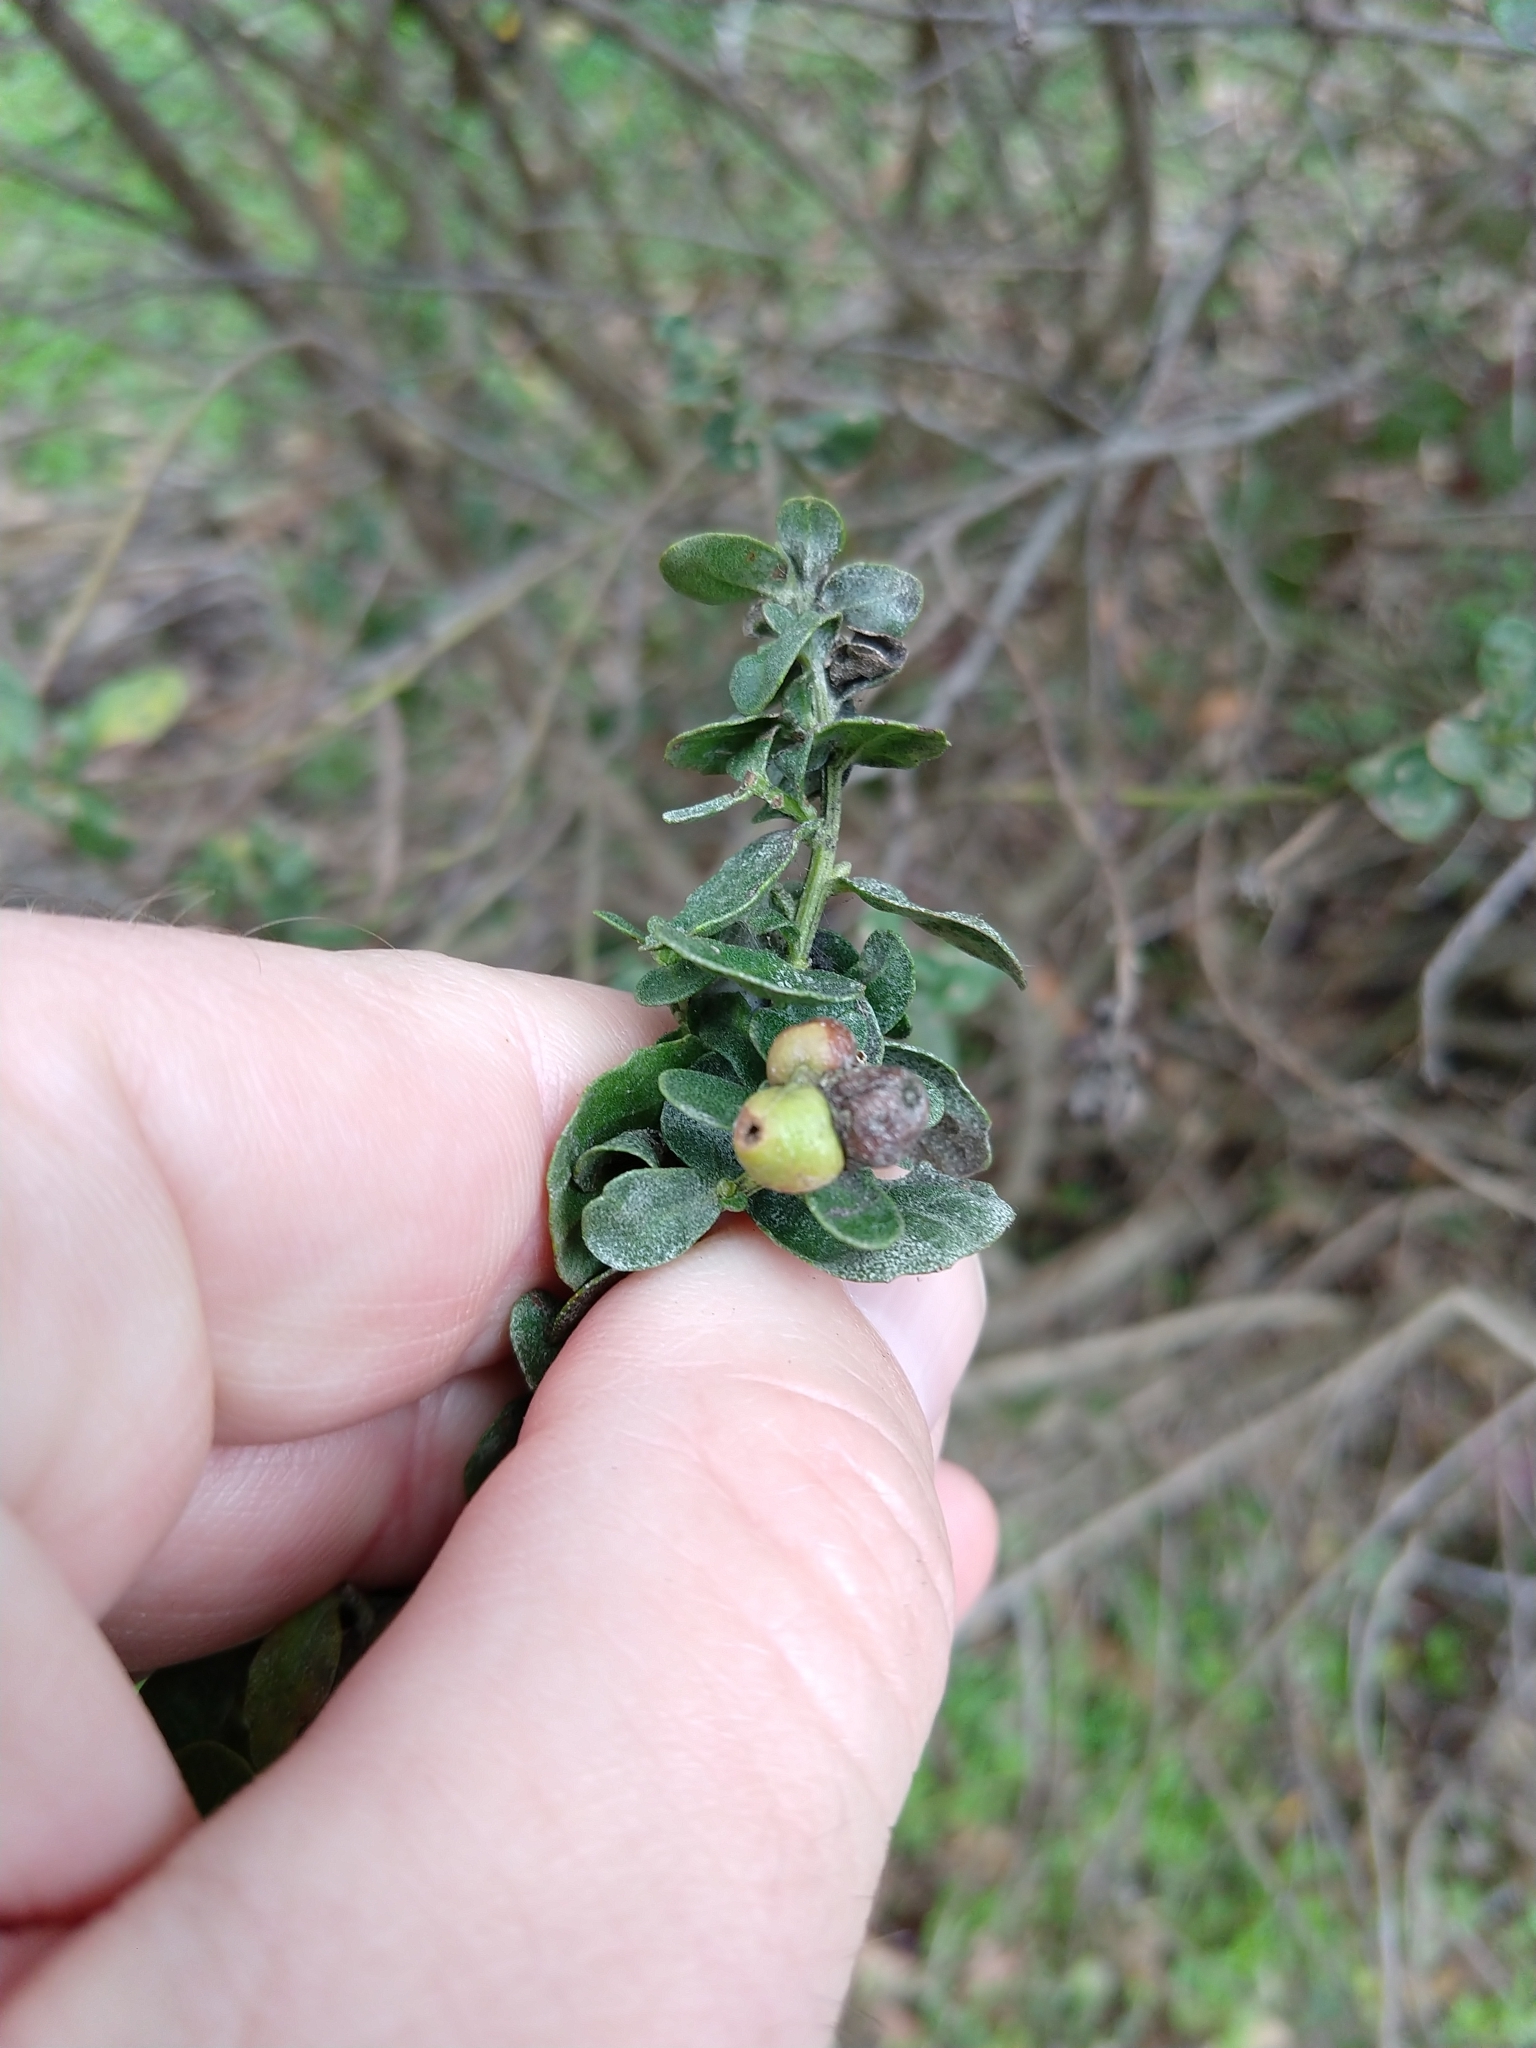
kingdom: Animalia
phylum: Arthropoda
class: Insecta
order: Diptera
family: Cecidomyiidae
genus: Rhopalomyia
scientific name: Rhopalomyia californica
